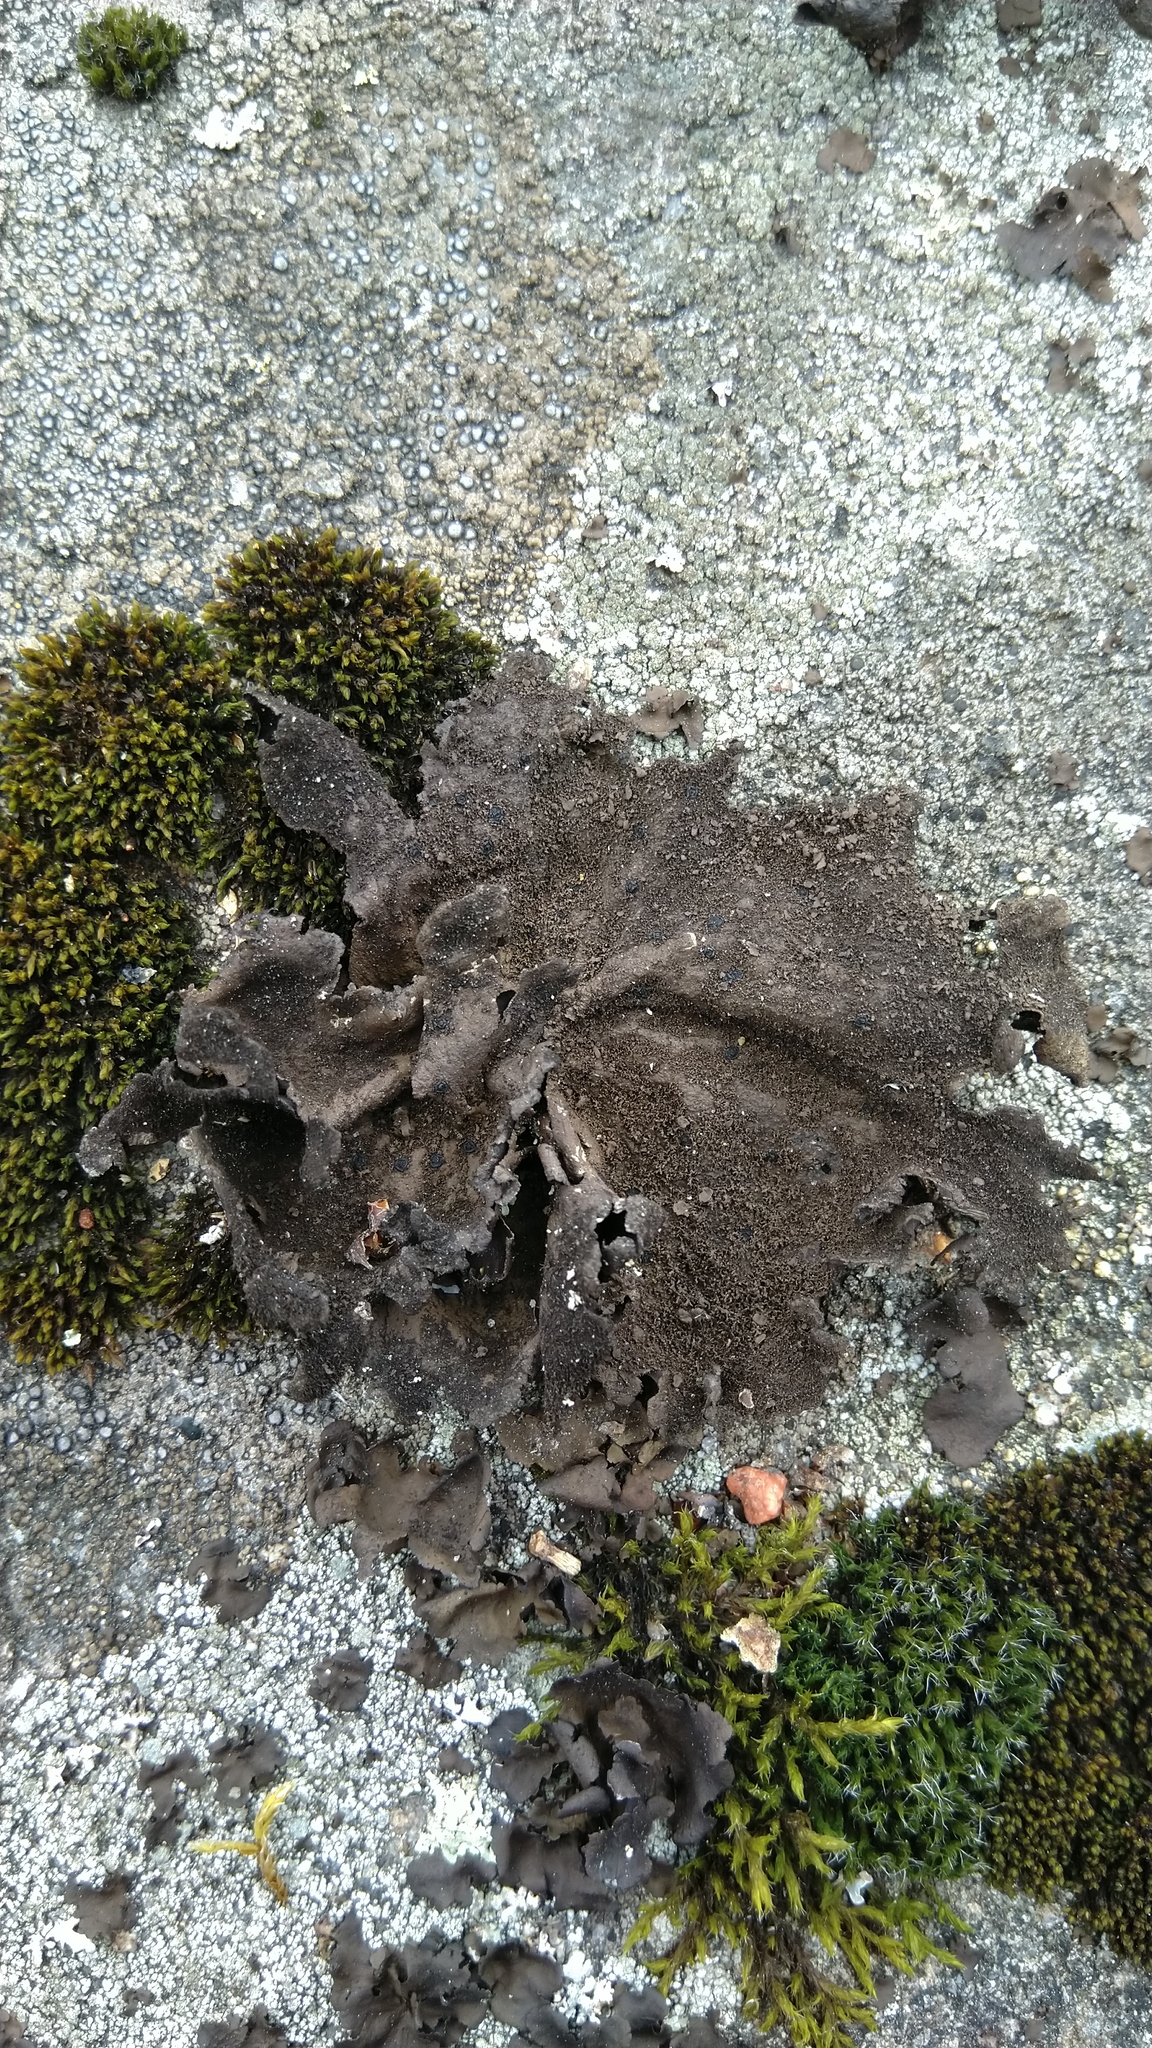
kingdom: Fungi
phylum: Ascomycota
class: Lecanoromycetes
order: Umbilicariales
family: Umbilicariaceae
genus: Umbilicaria
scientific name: Umbilicaria deusta
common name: Peppered rock tripe
